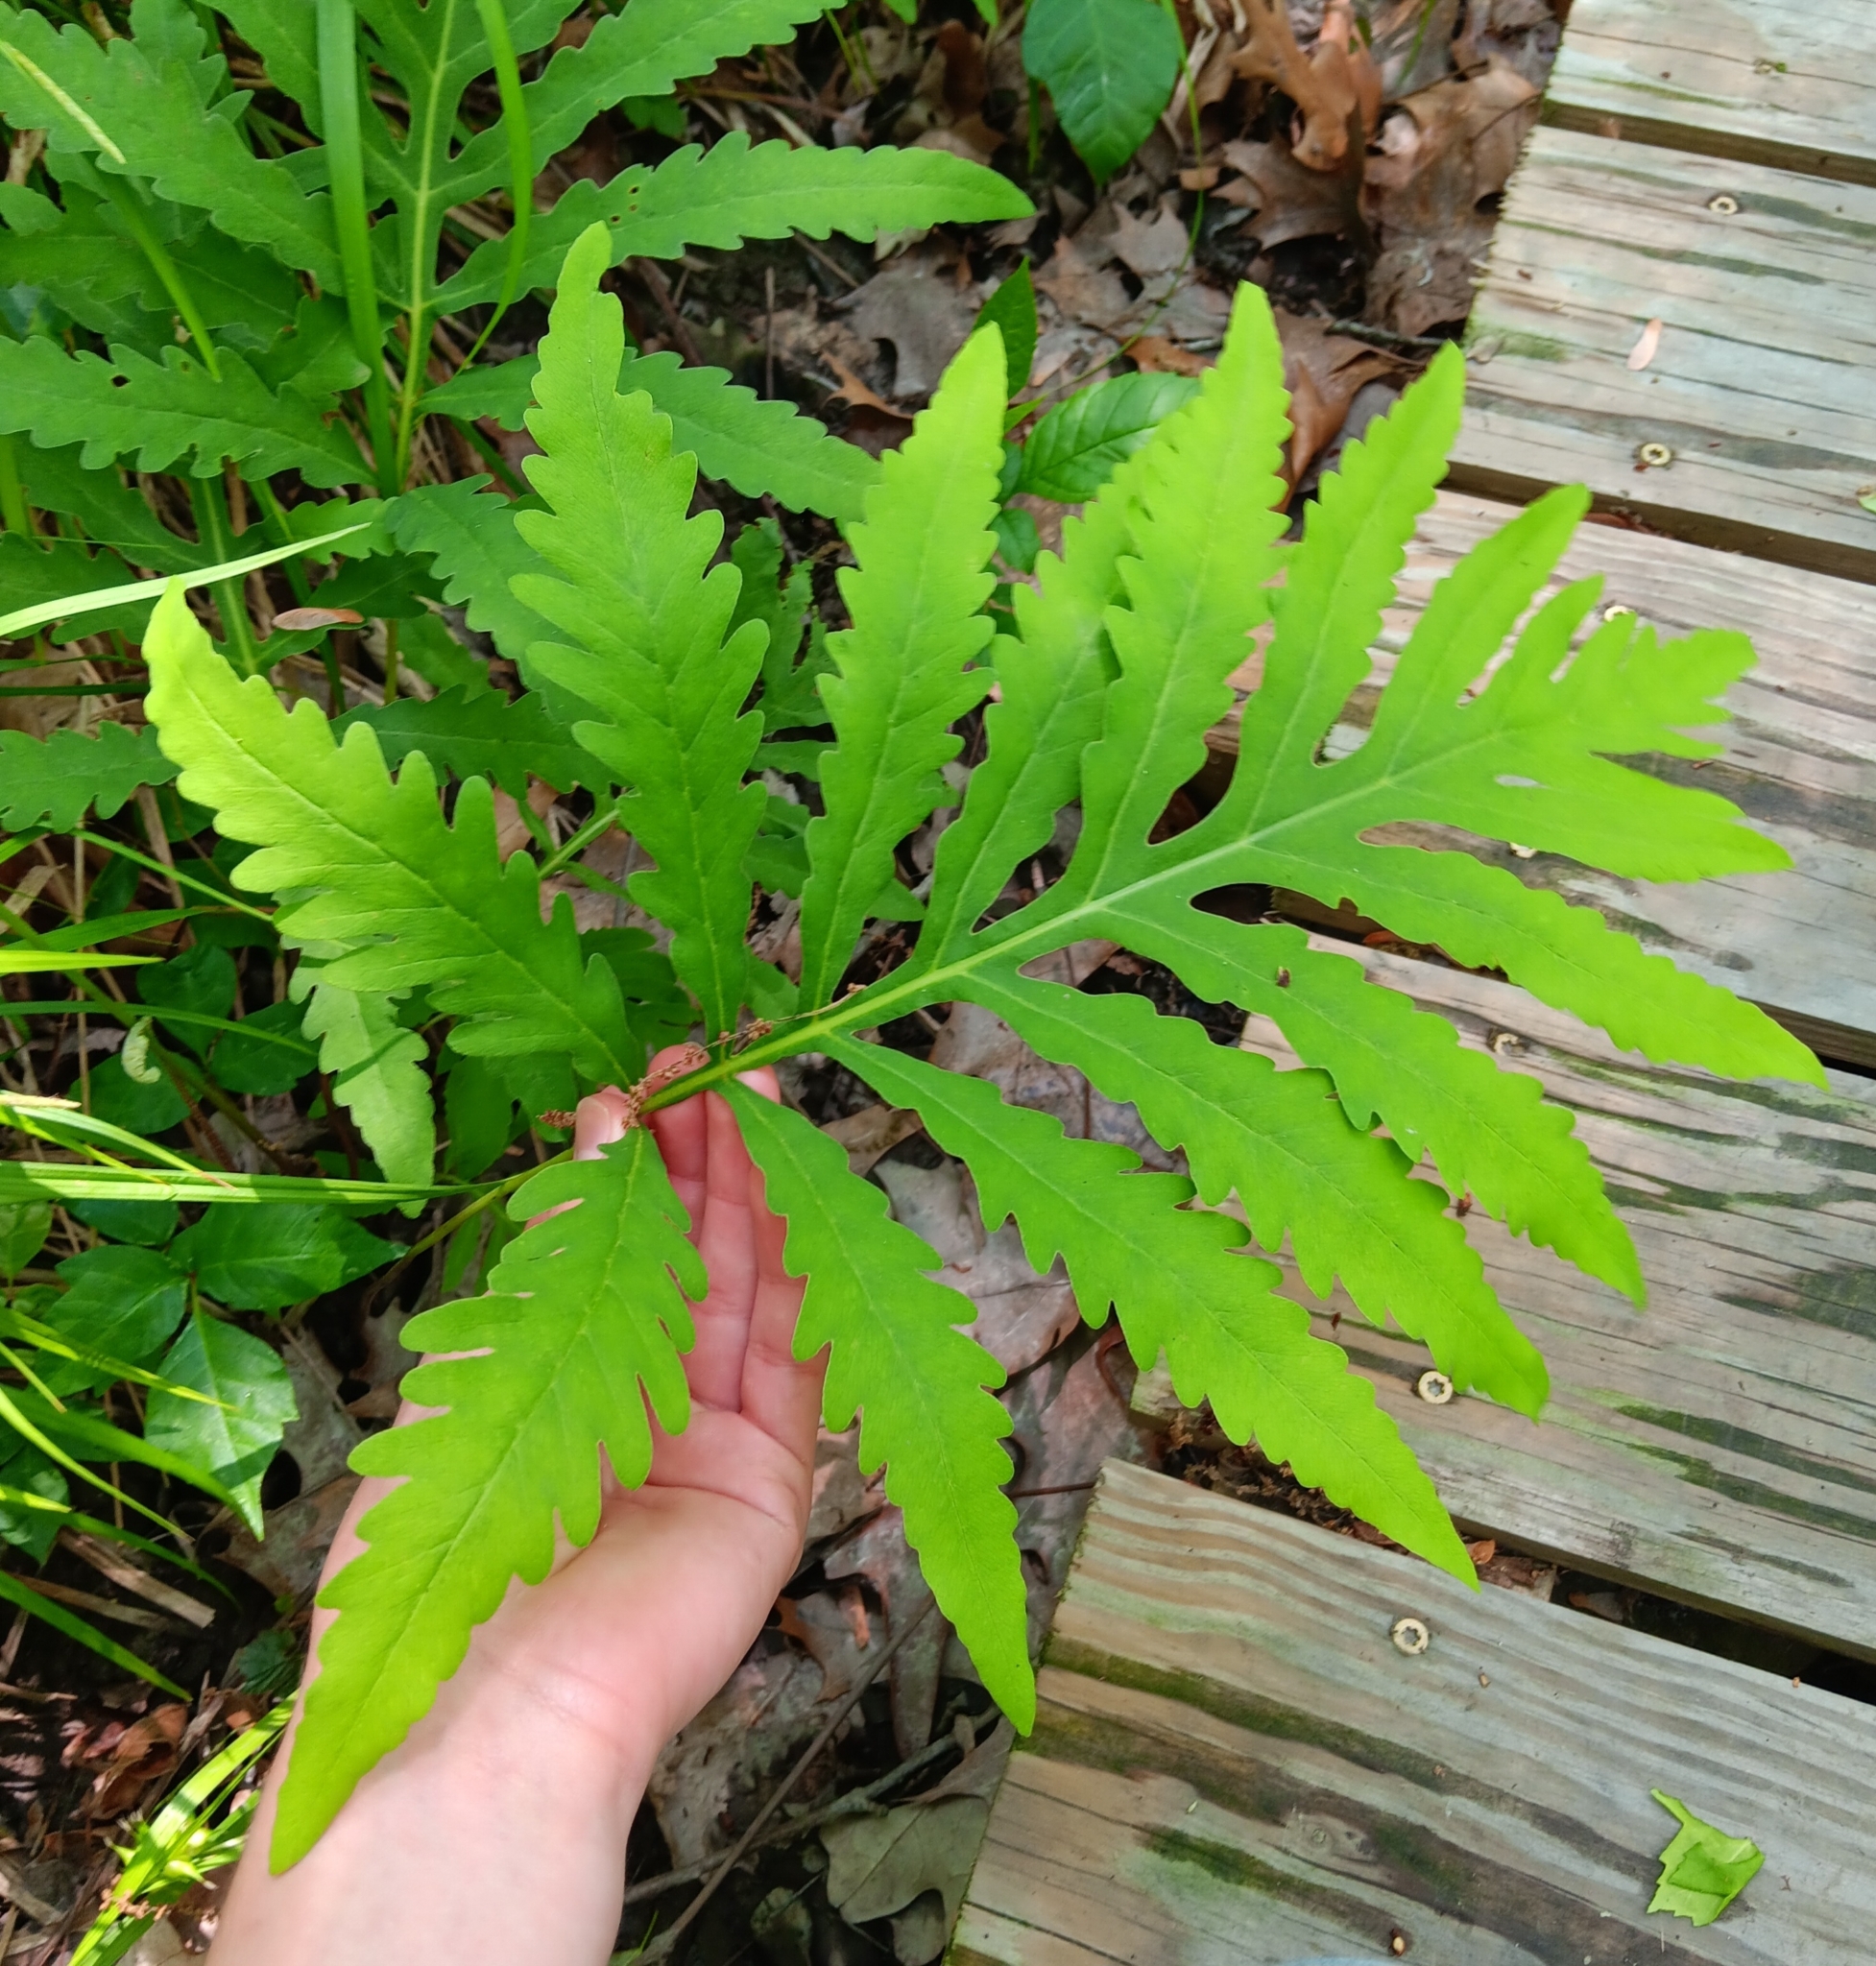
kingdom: Plantae
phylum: Tracheophyta
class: Polypodiopsida
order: Polypodiales
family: Onocleaceae
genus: Onoclea
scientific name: Onoclea sensibilis
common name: Sensitive fern
